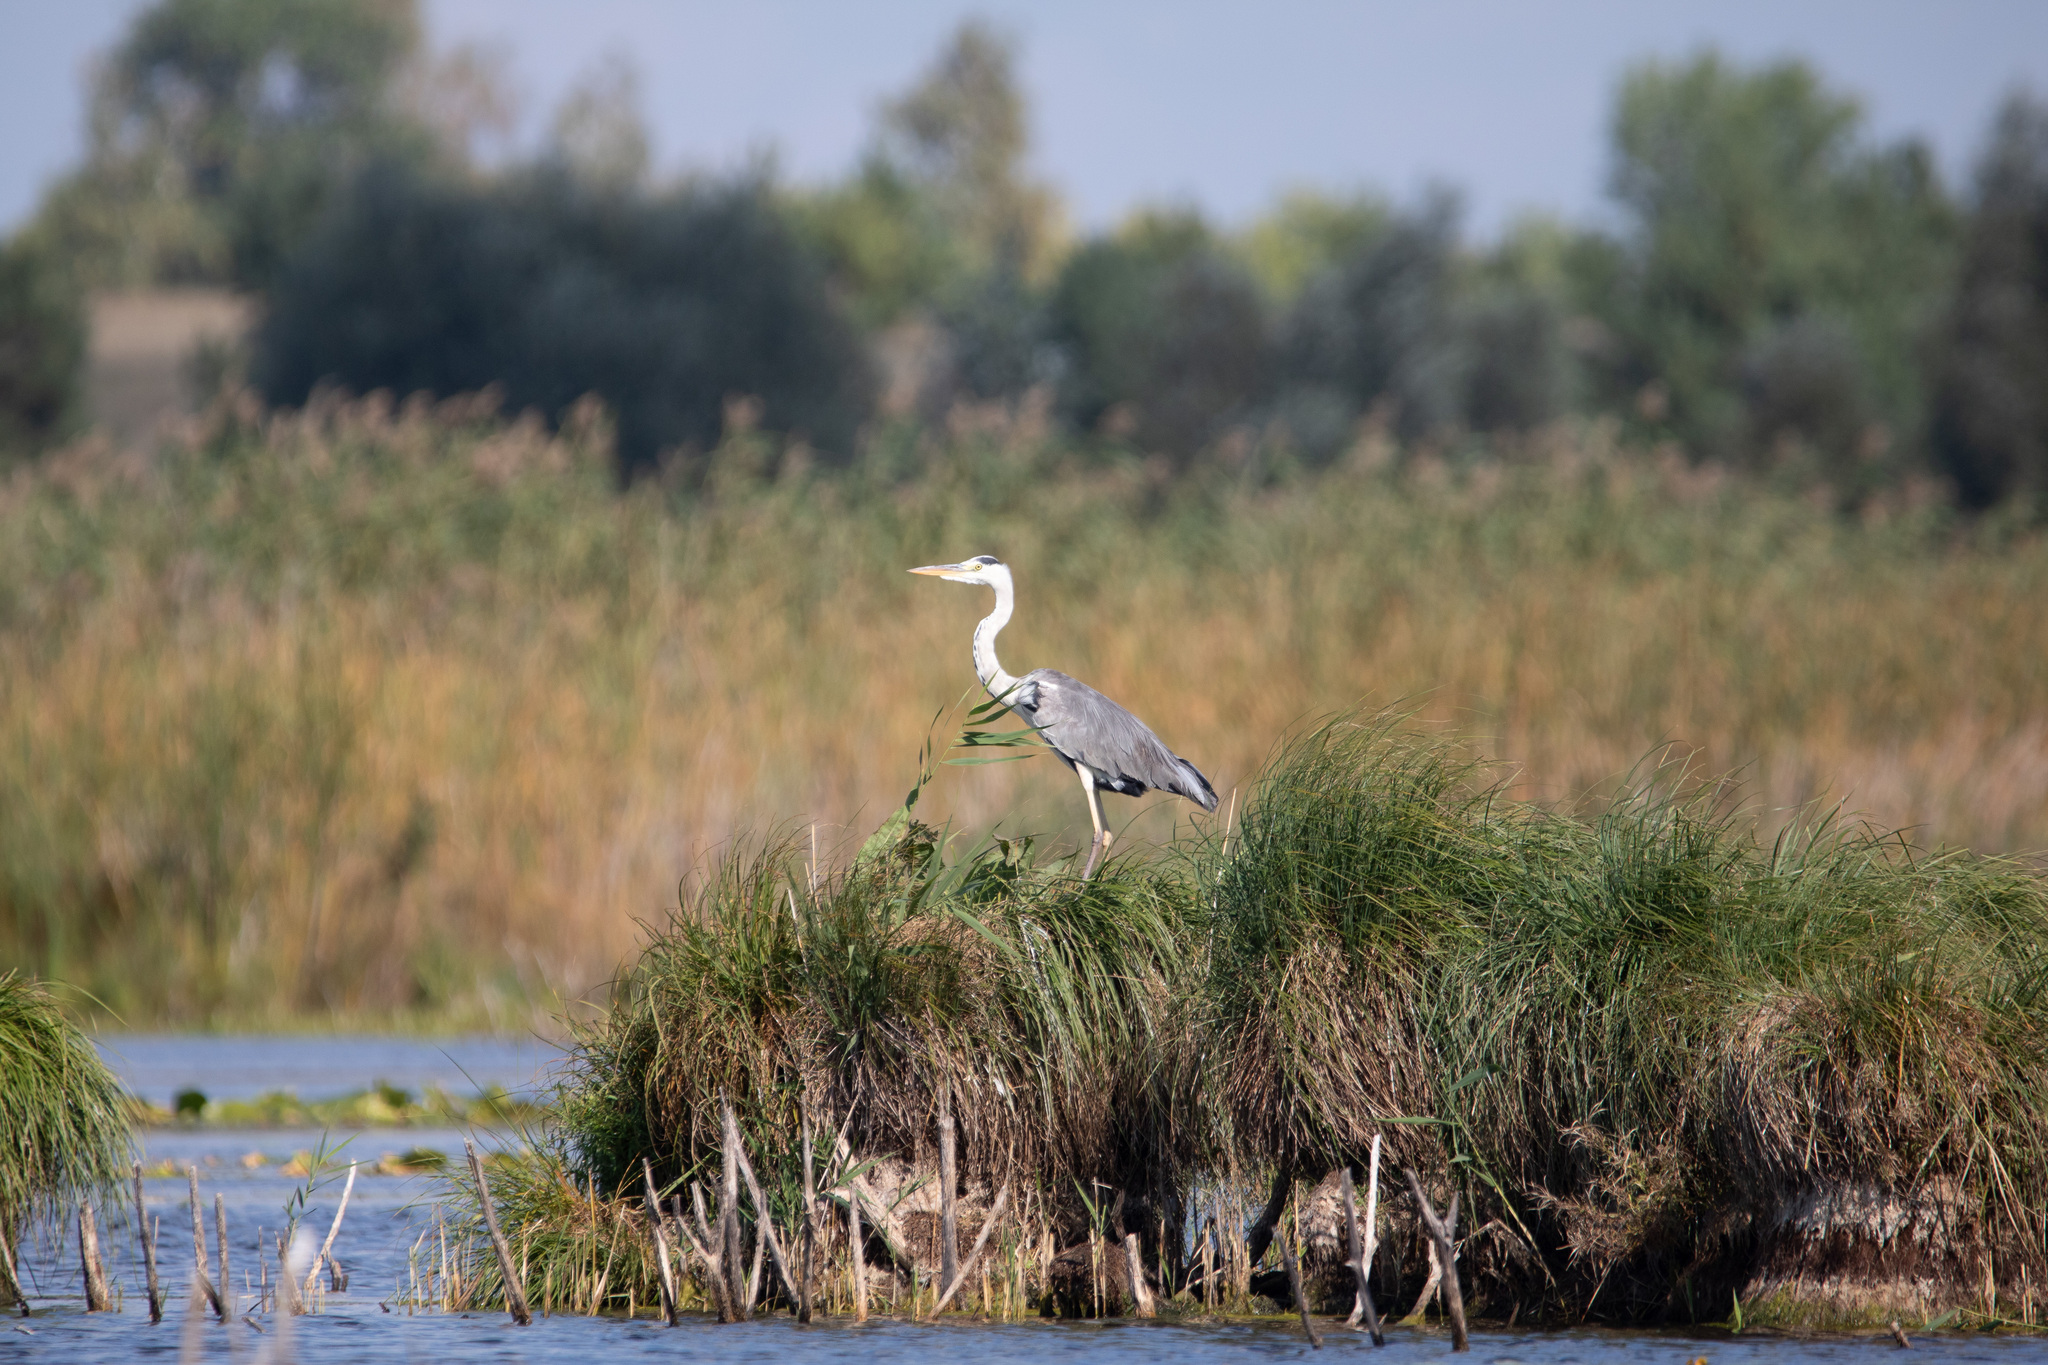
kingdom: Animalia
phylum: Chordata
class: Aves
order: Pelecaniformes
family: Ardeidae
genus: Ardea
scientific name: Ardea cinerea
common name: Grey heron
